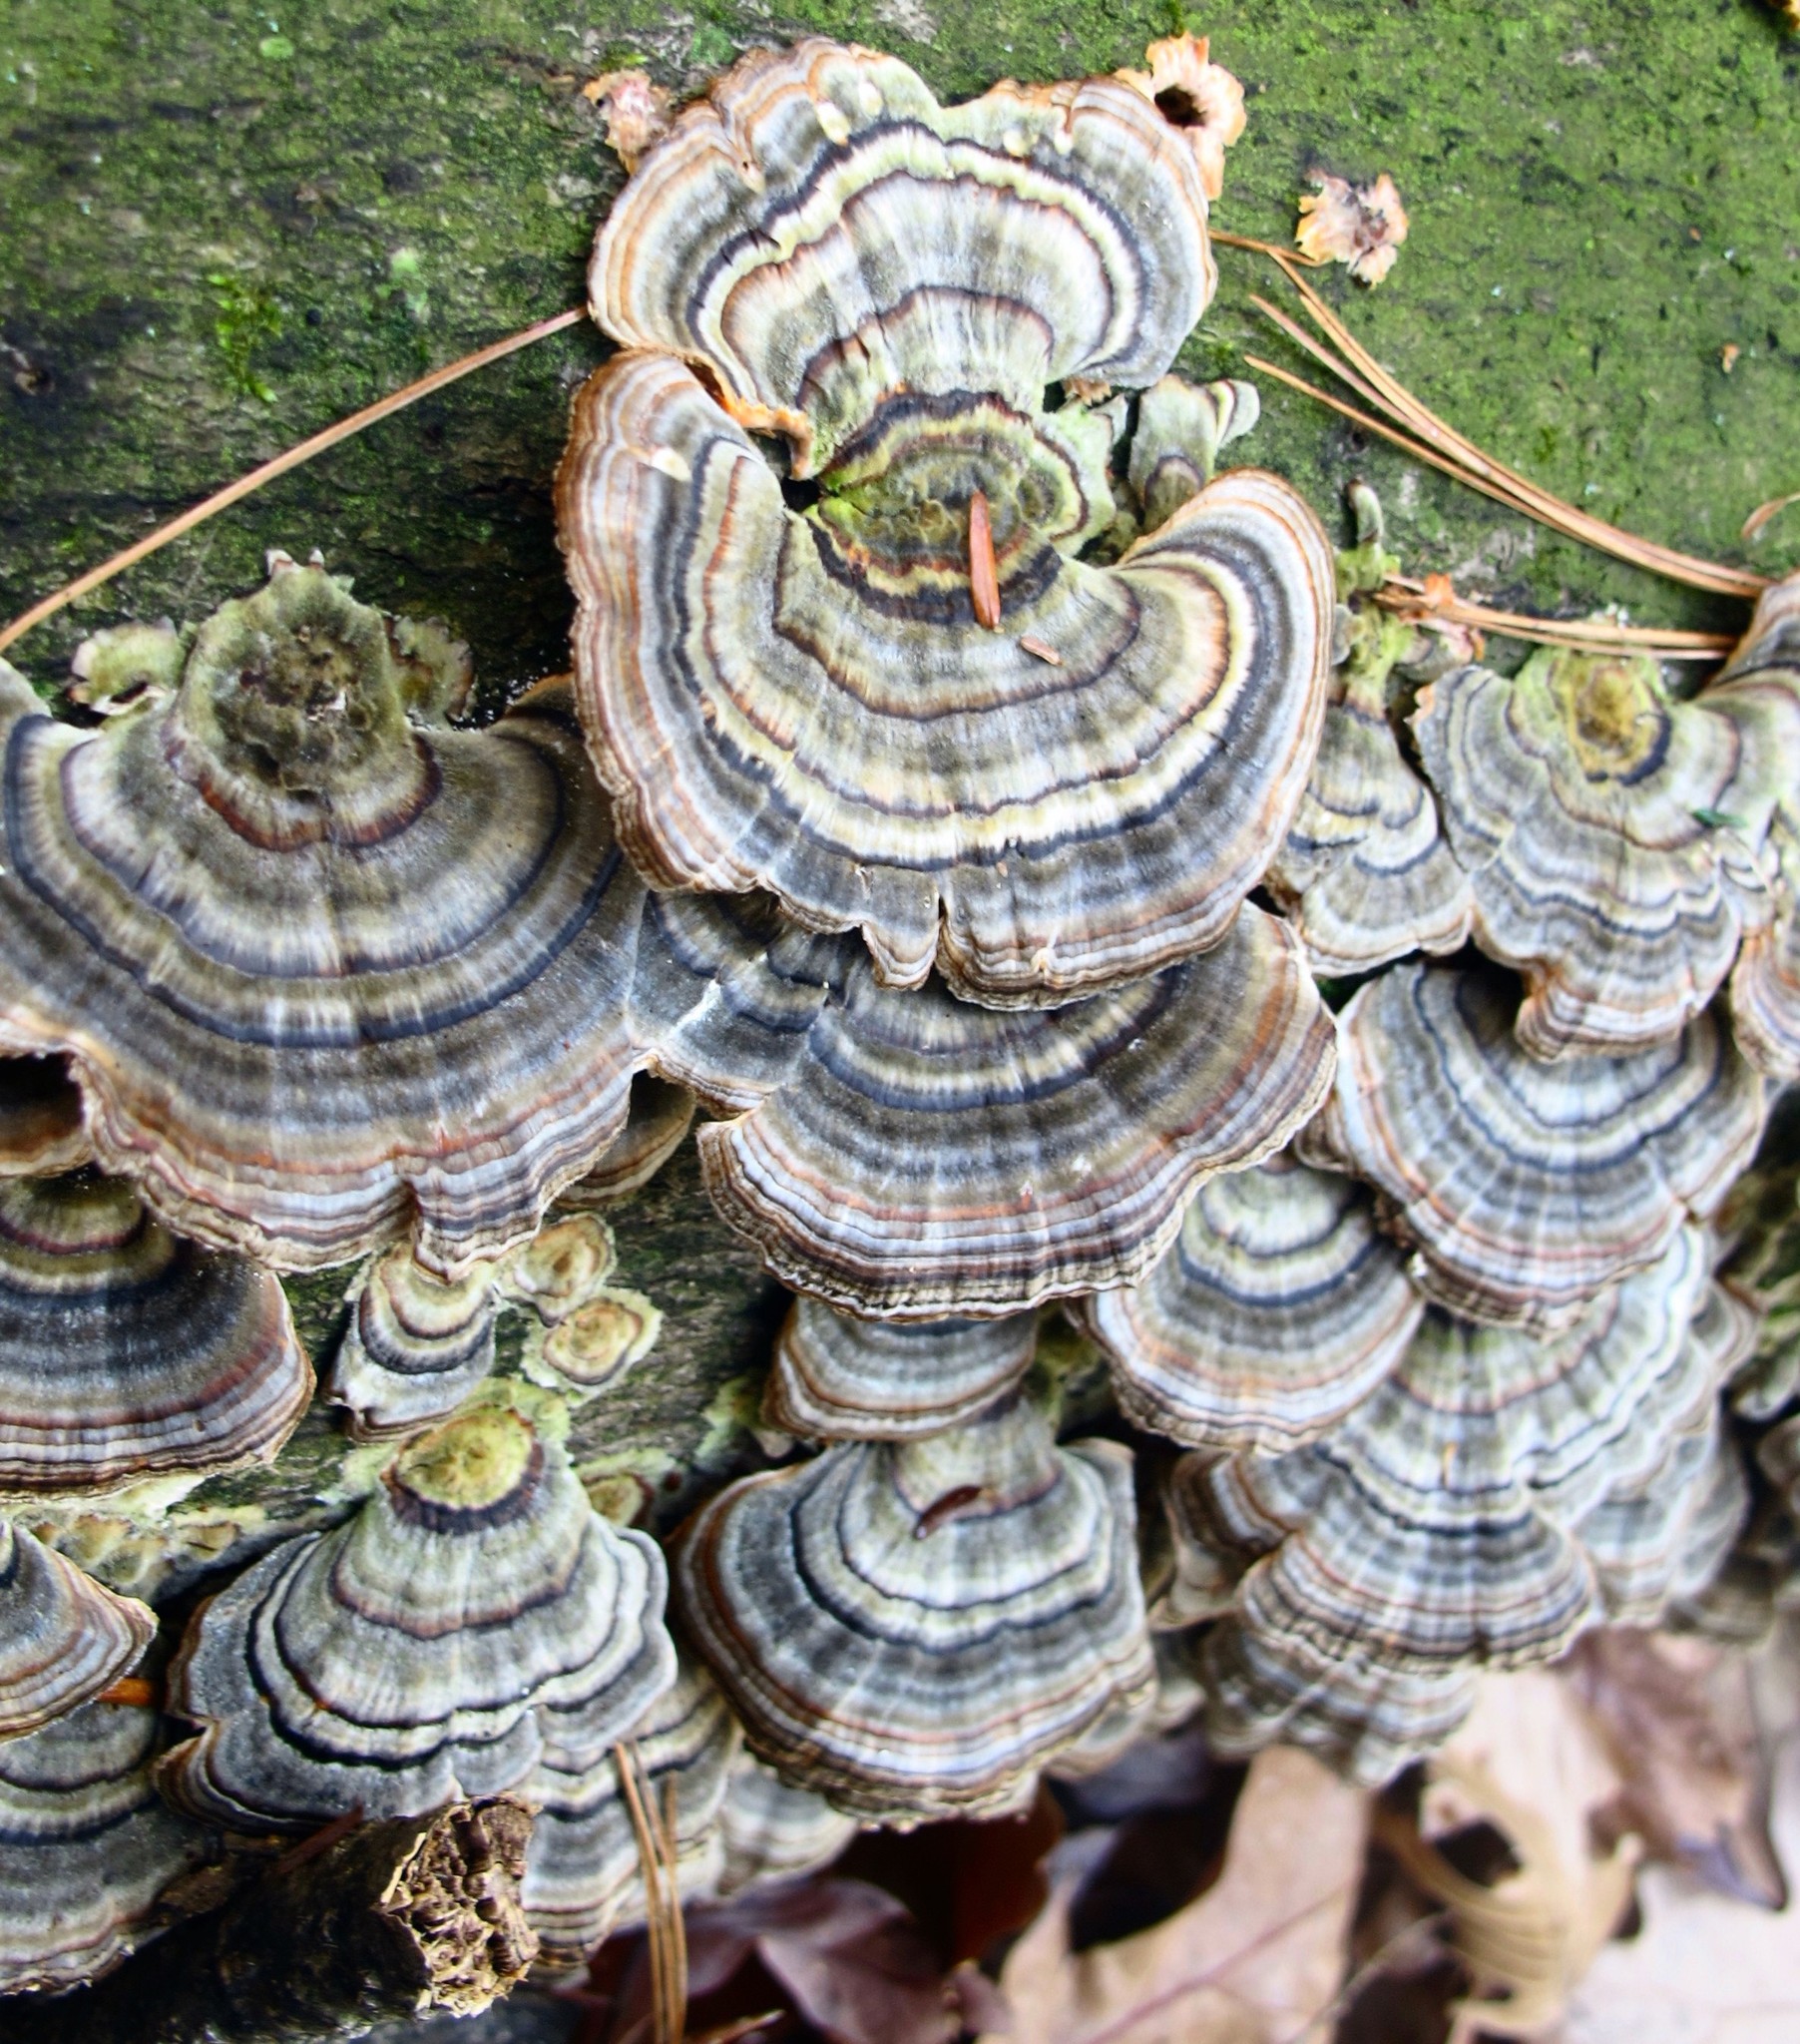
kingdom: Fungi
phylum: Basidiomycota
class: Agaricomycetes
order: Polyporales
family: Polyporaceae
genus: Trametes
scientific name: Trametes versicolor
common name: Turkeytail
